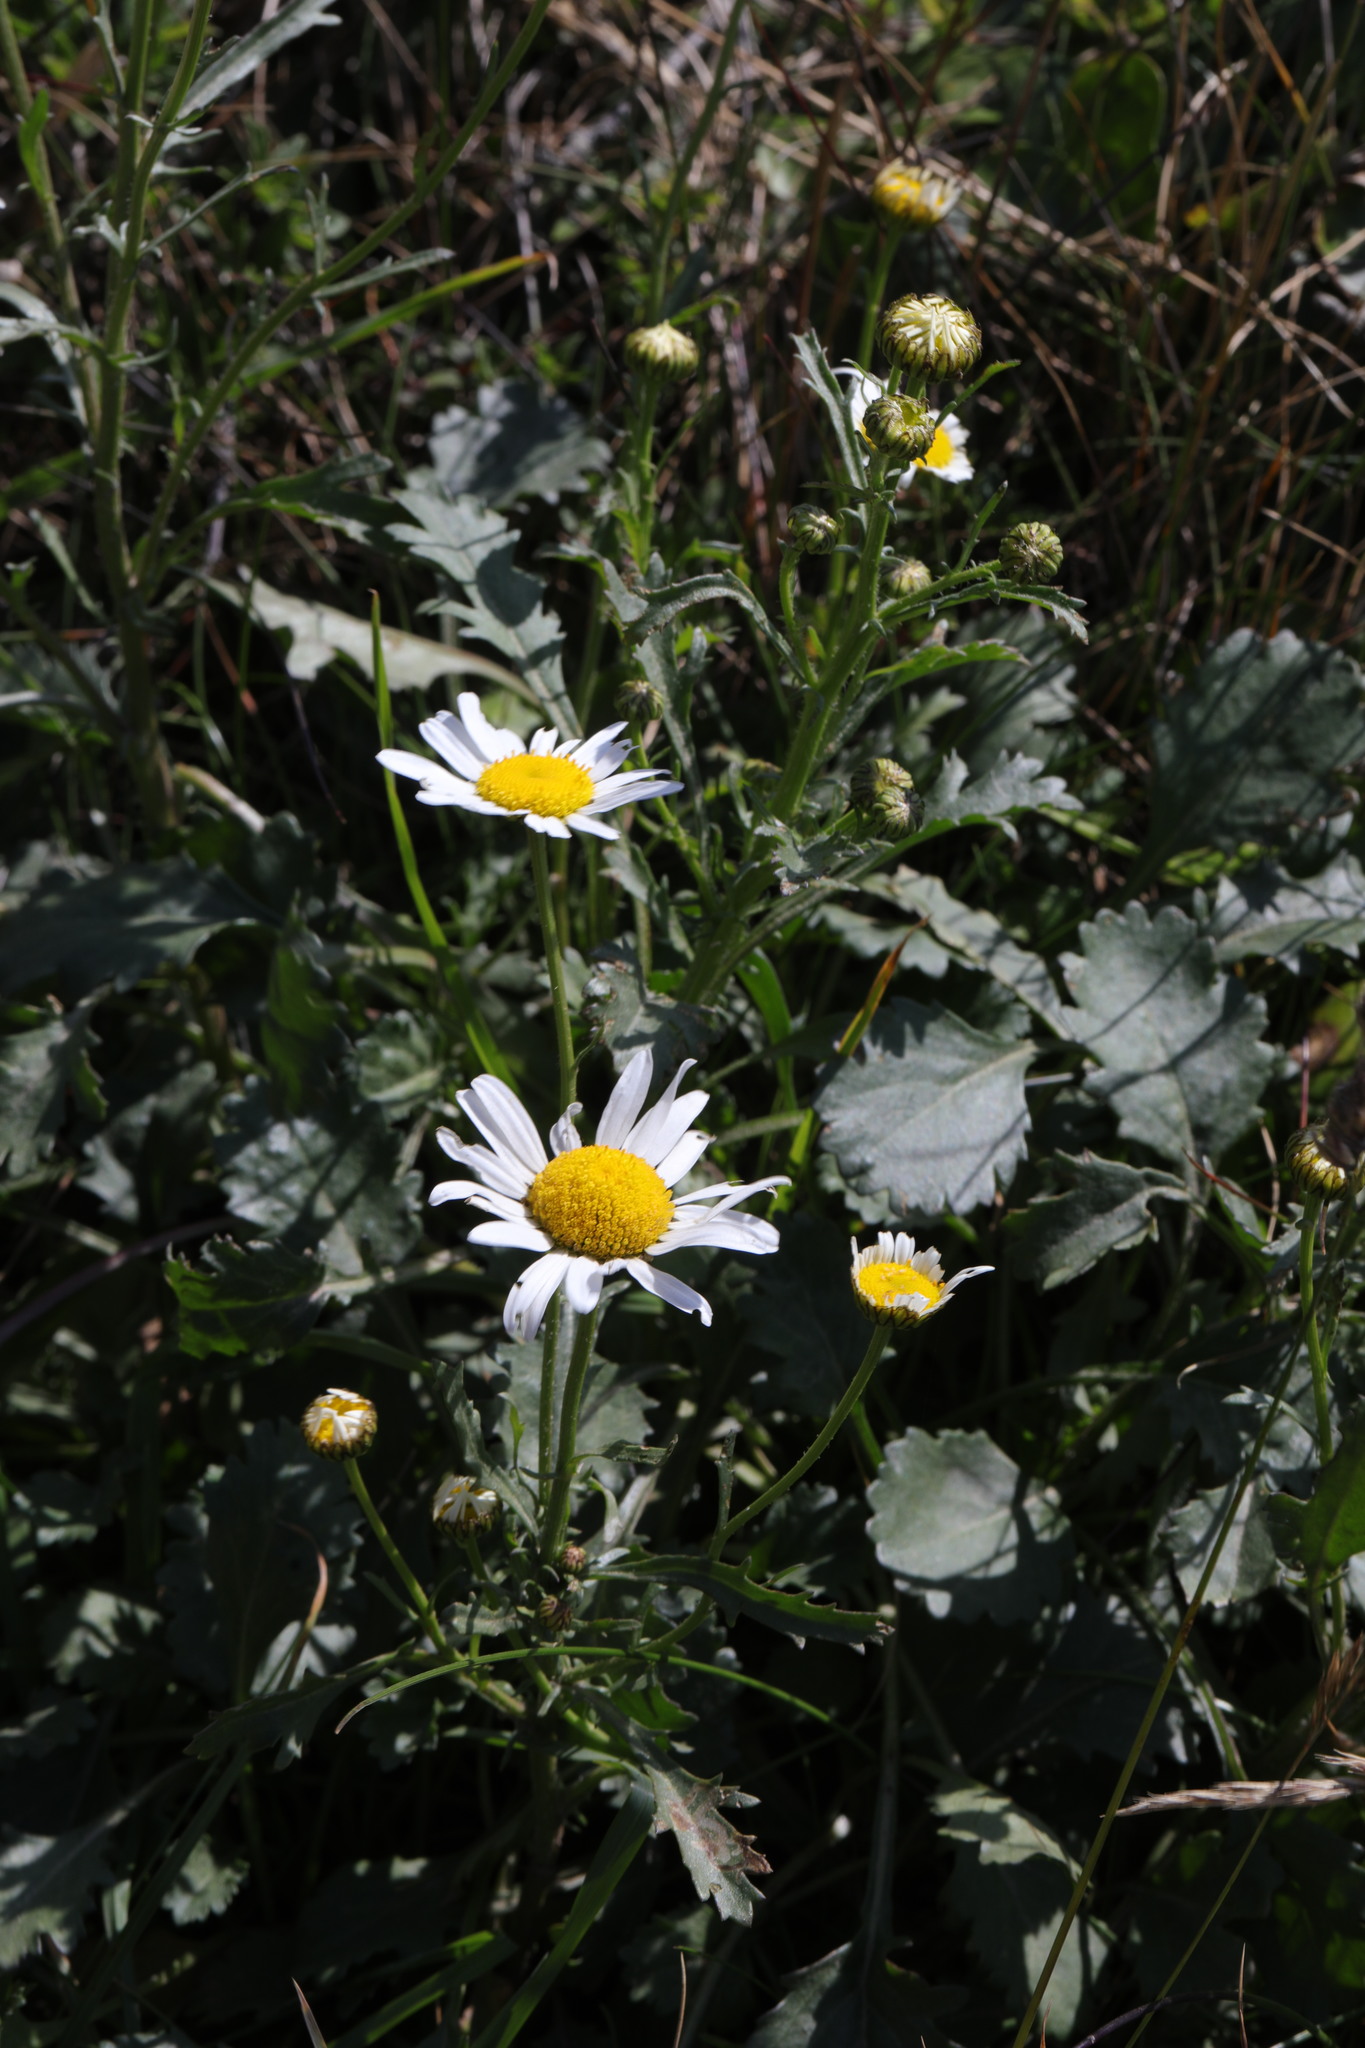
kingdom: Plantae
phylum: Tracheophyta
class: Magnoliopsida
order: Asterales
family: Asteraceae
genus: Leucanthemum
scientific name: Leucanthemum vulgare
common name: Oxeye daisy
